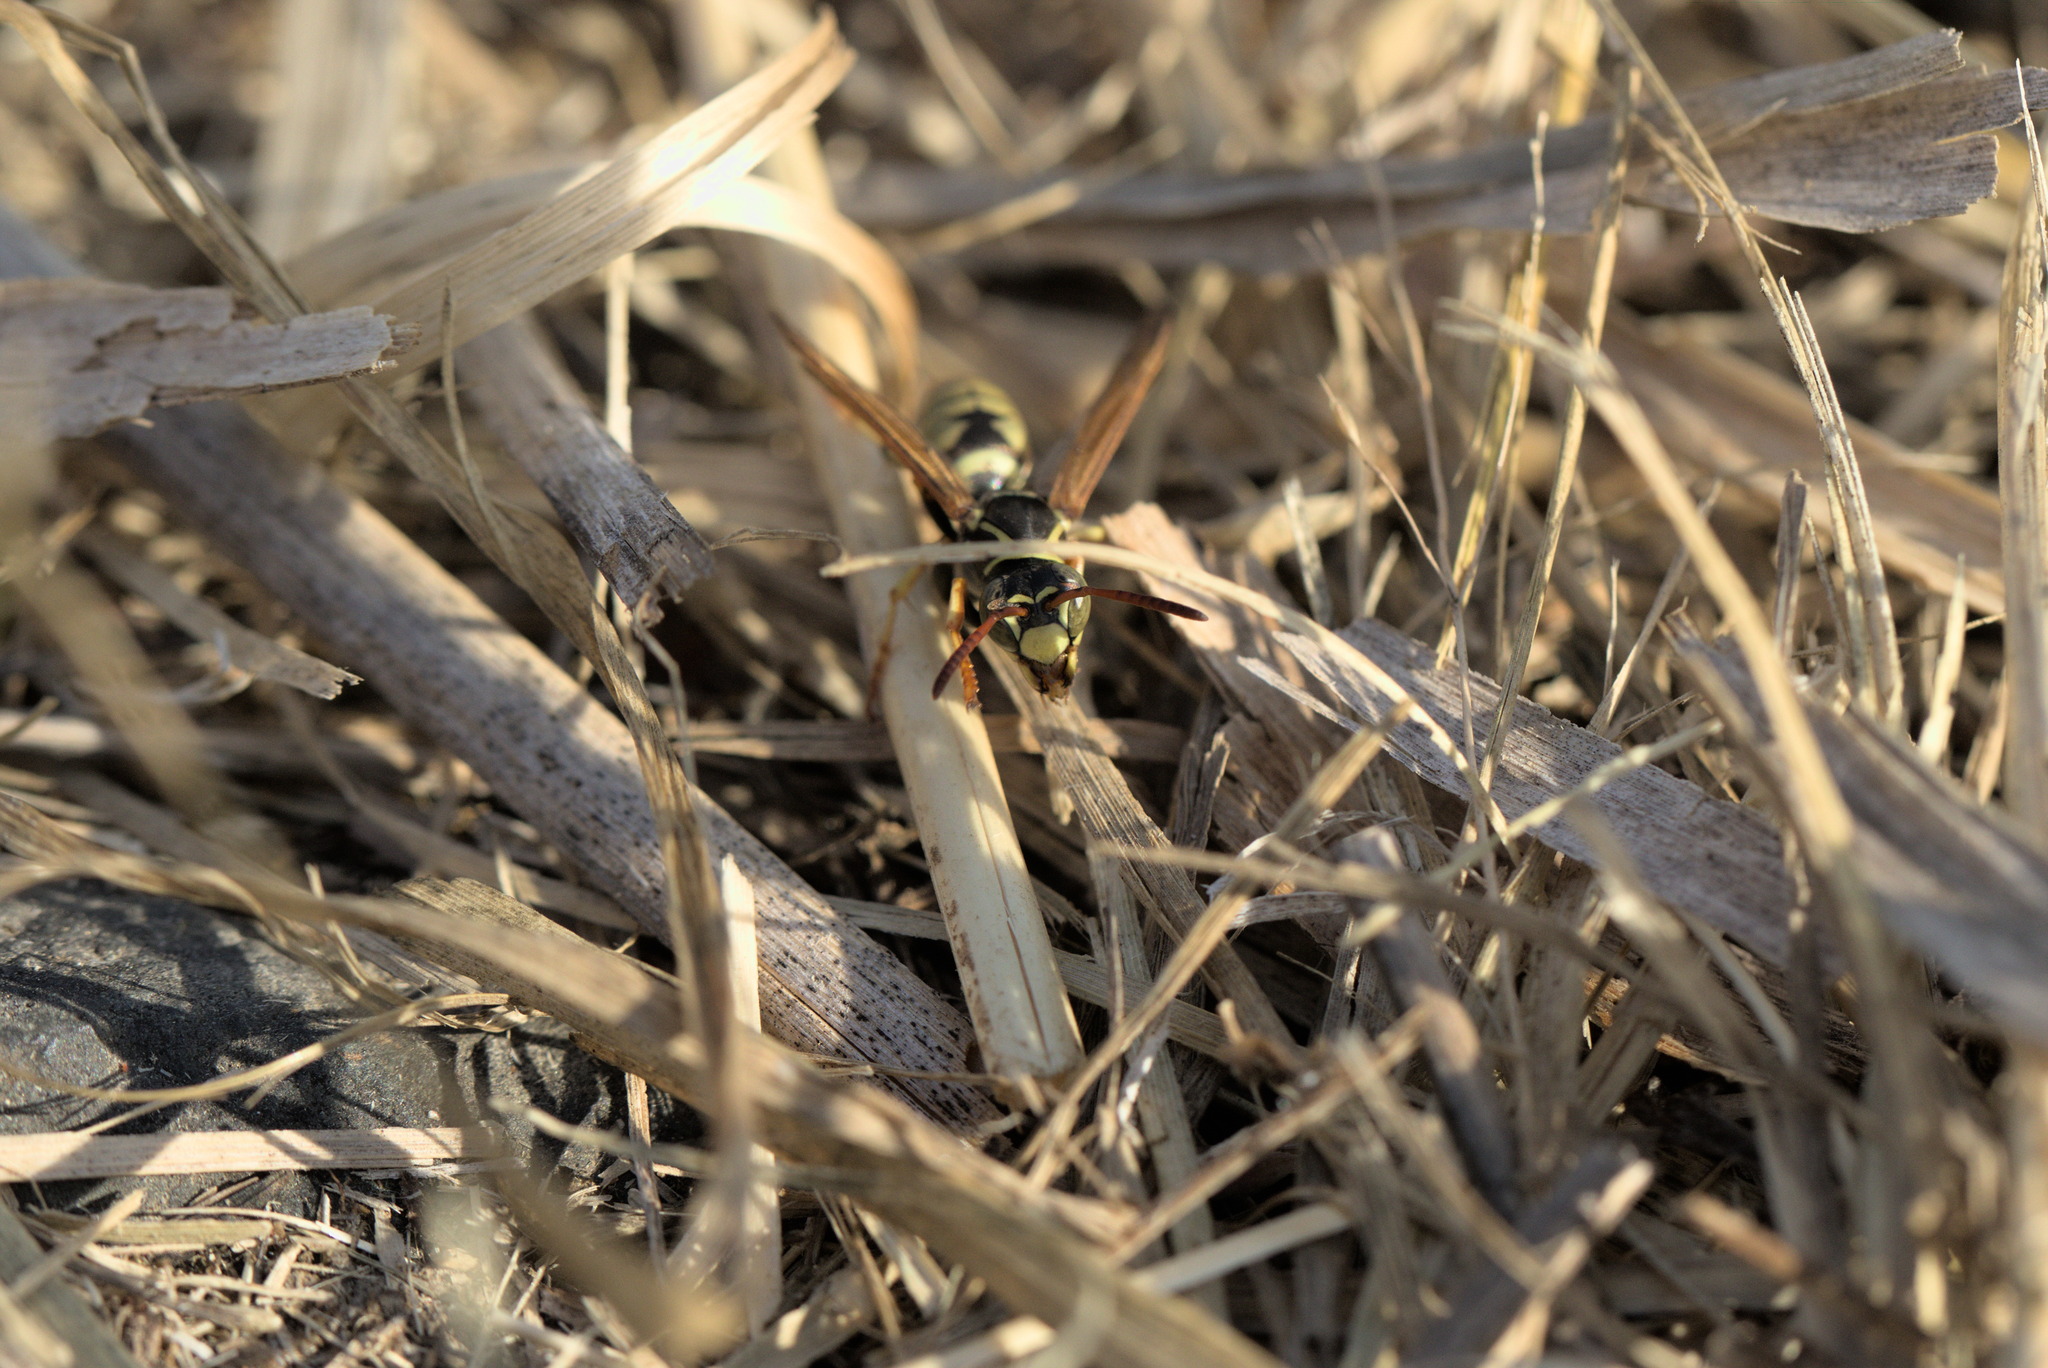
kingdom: Animalia
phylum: Arthropoda
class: Insecta
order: Hymenoptera
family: Eumenidae
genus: Polistes
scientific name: Polistes aurifer
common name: Paper wasp
